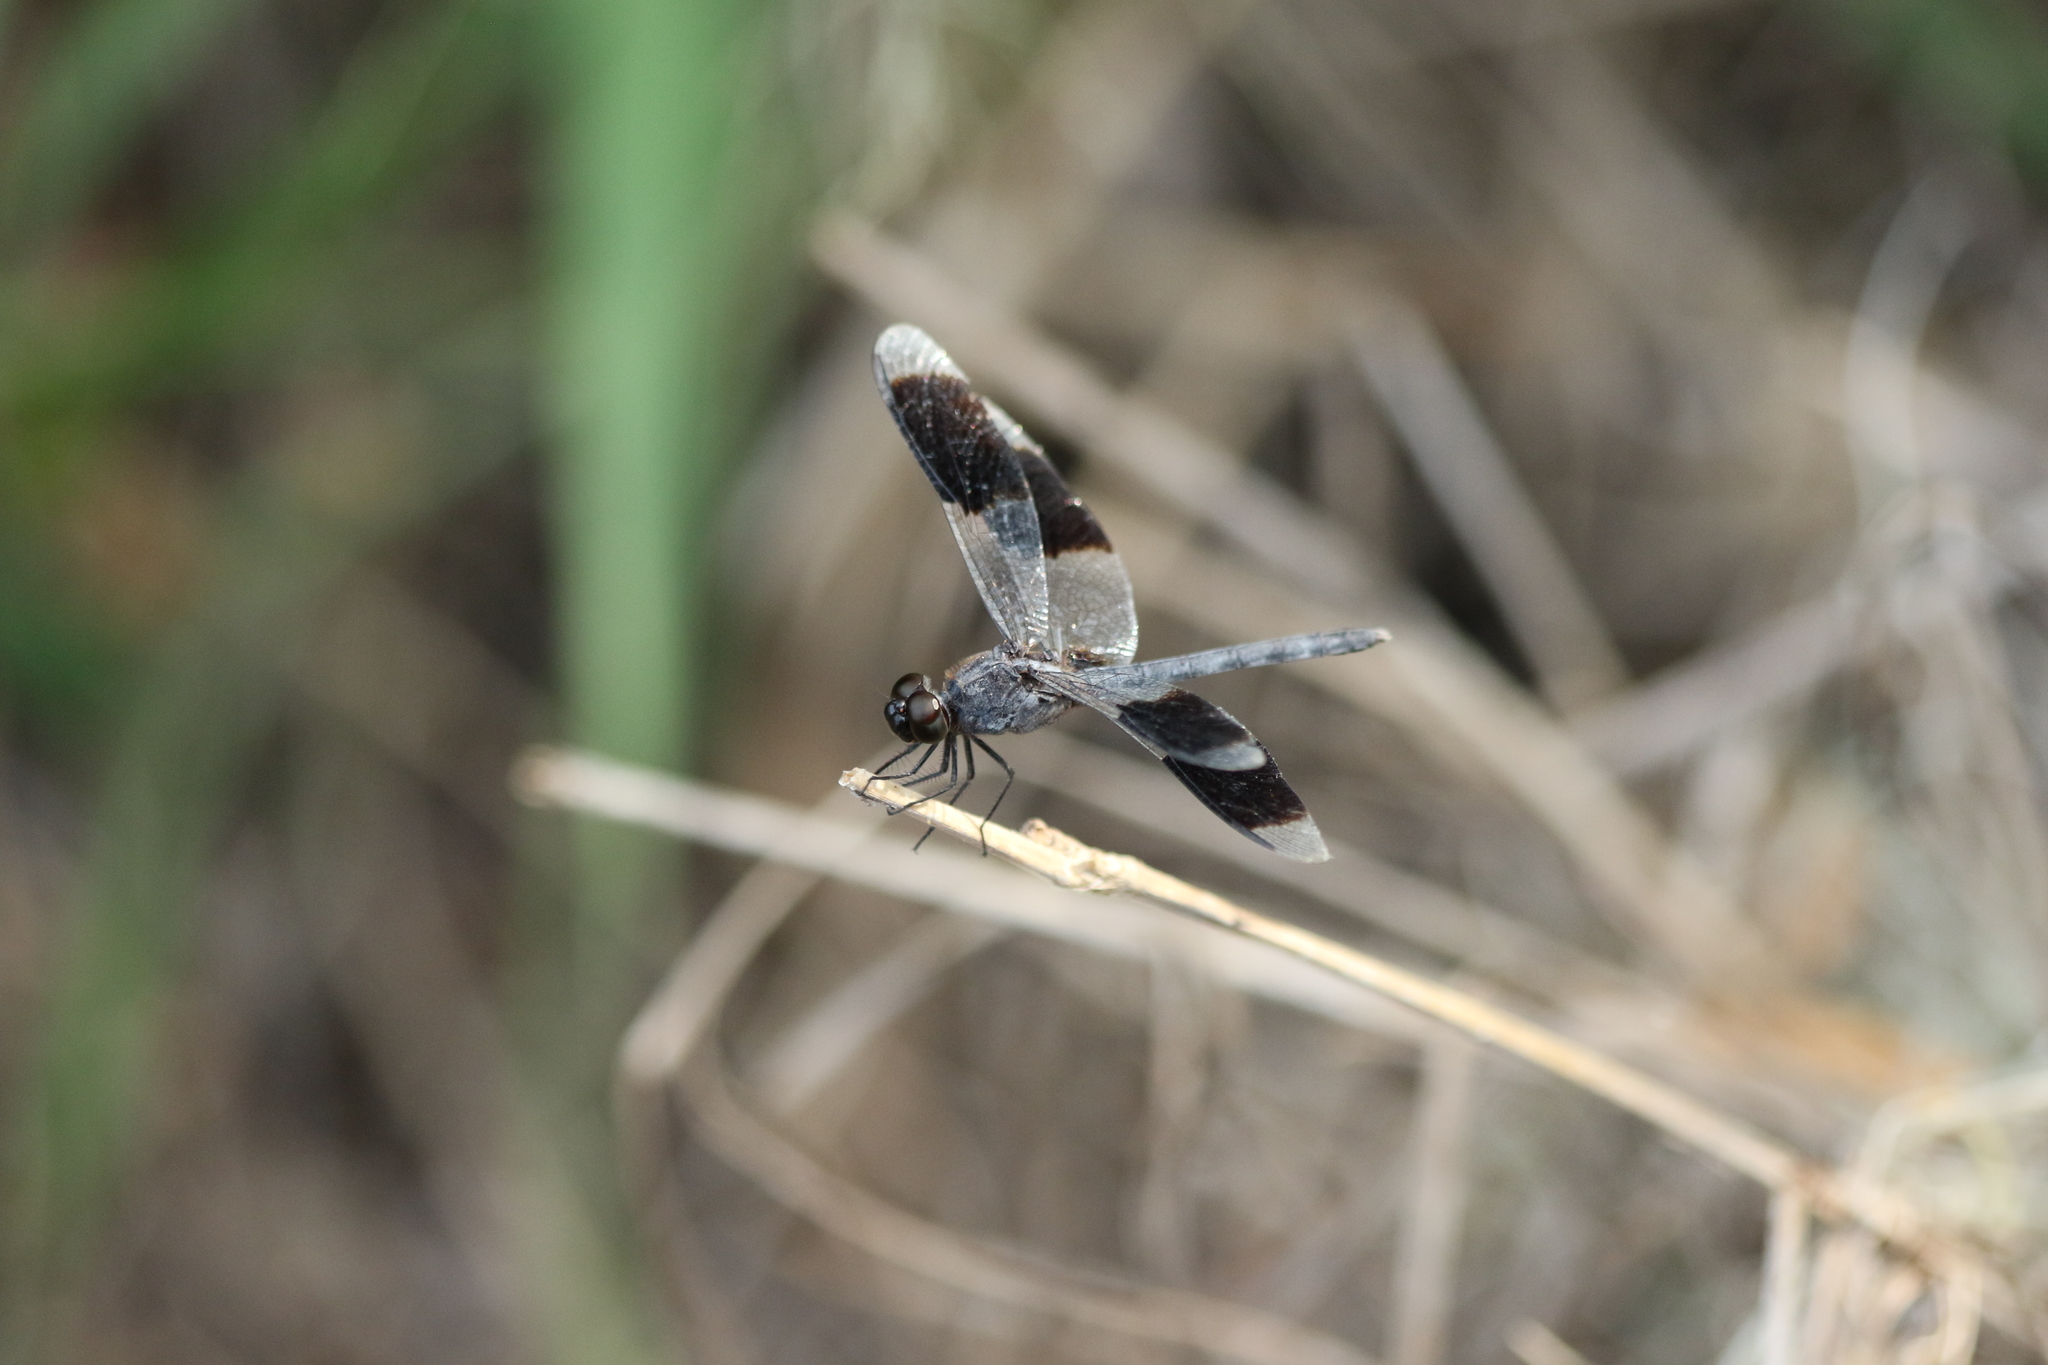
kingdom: Animalia
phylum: Arthropoda
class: Insecta
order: Odonata
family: Libellulidae
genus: Erythrodiplax
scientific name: Erythrodiplax umbrata
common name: Band-winged dragonlet
